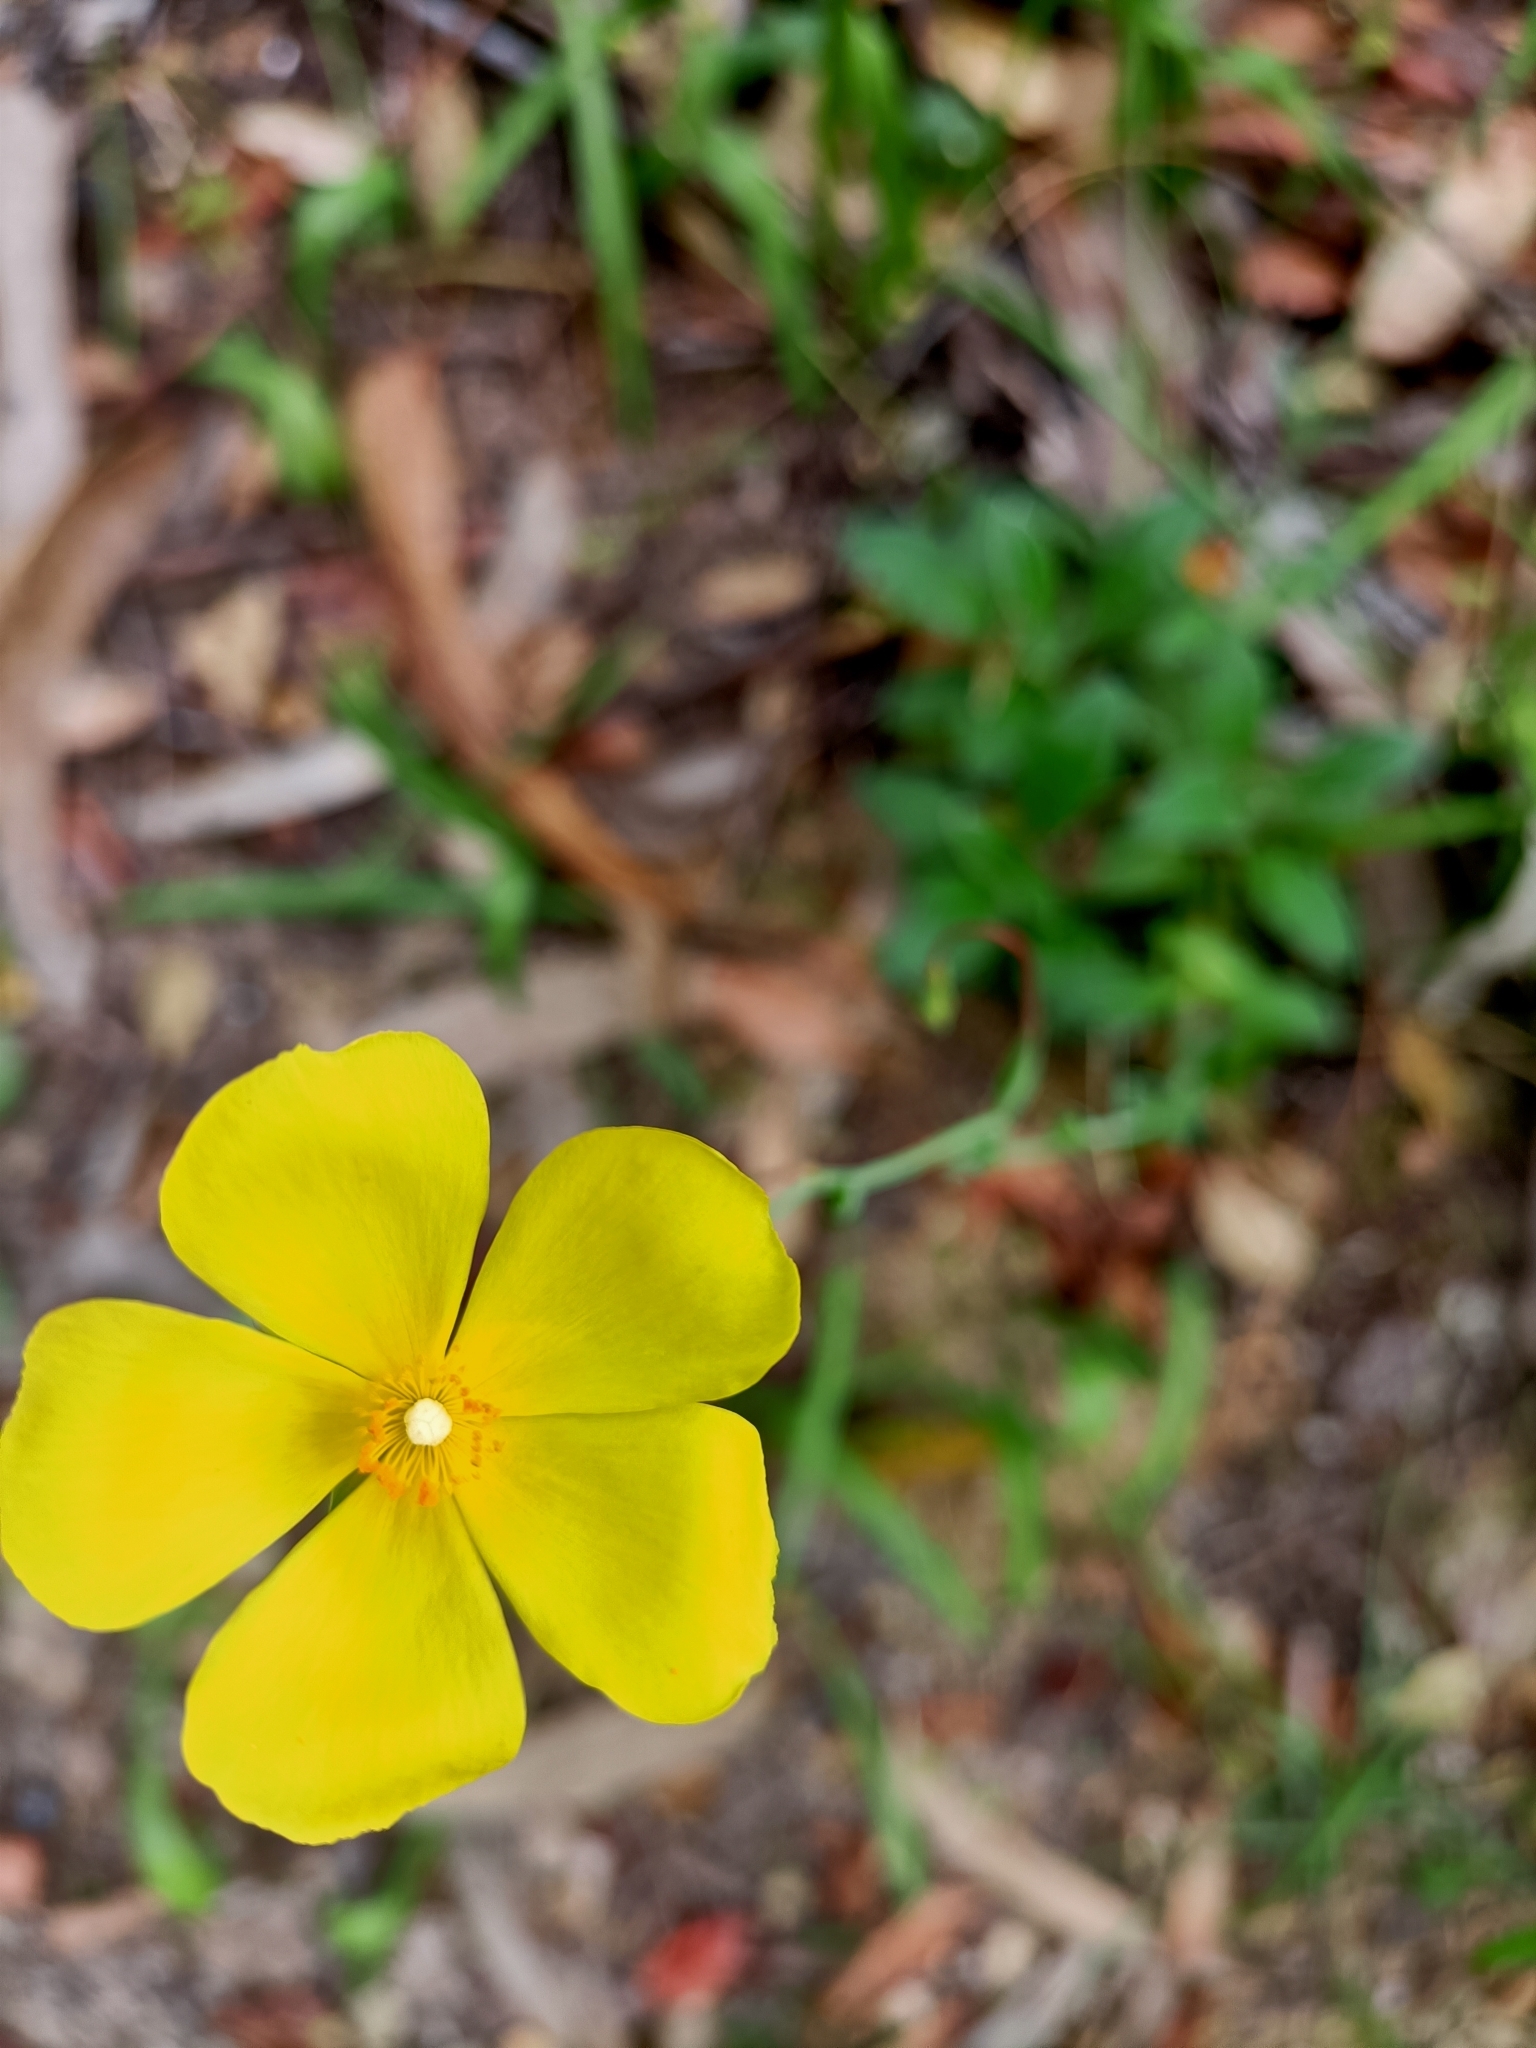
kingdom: Plantae
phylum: Tracheophyta
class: Magnoliopsida
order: Malvales
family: Cistaceae
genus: Tuberaria
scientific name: Tuberaria lignosa
